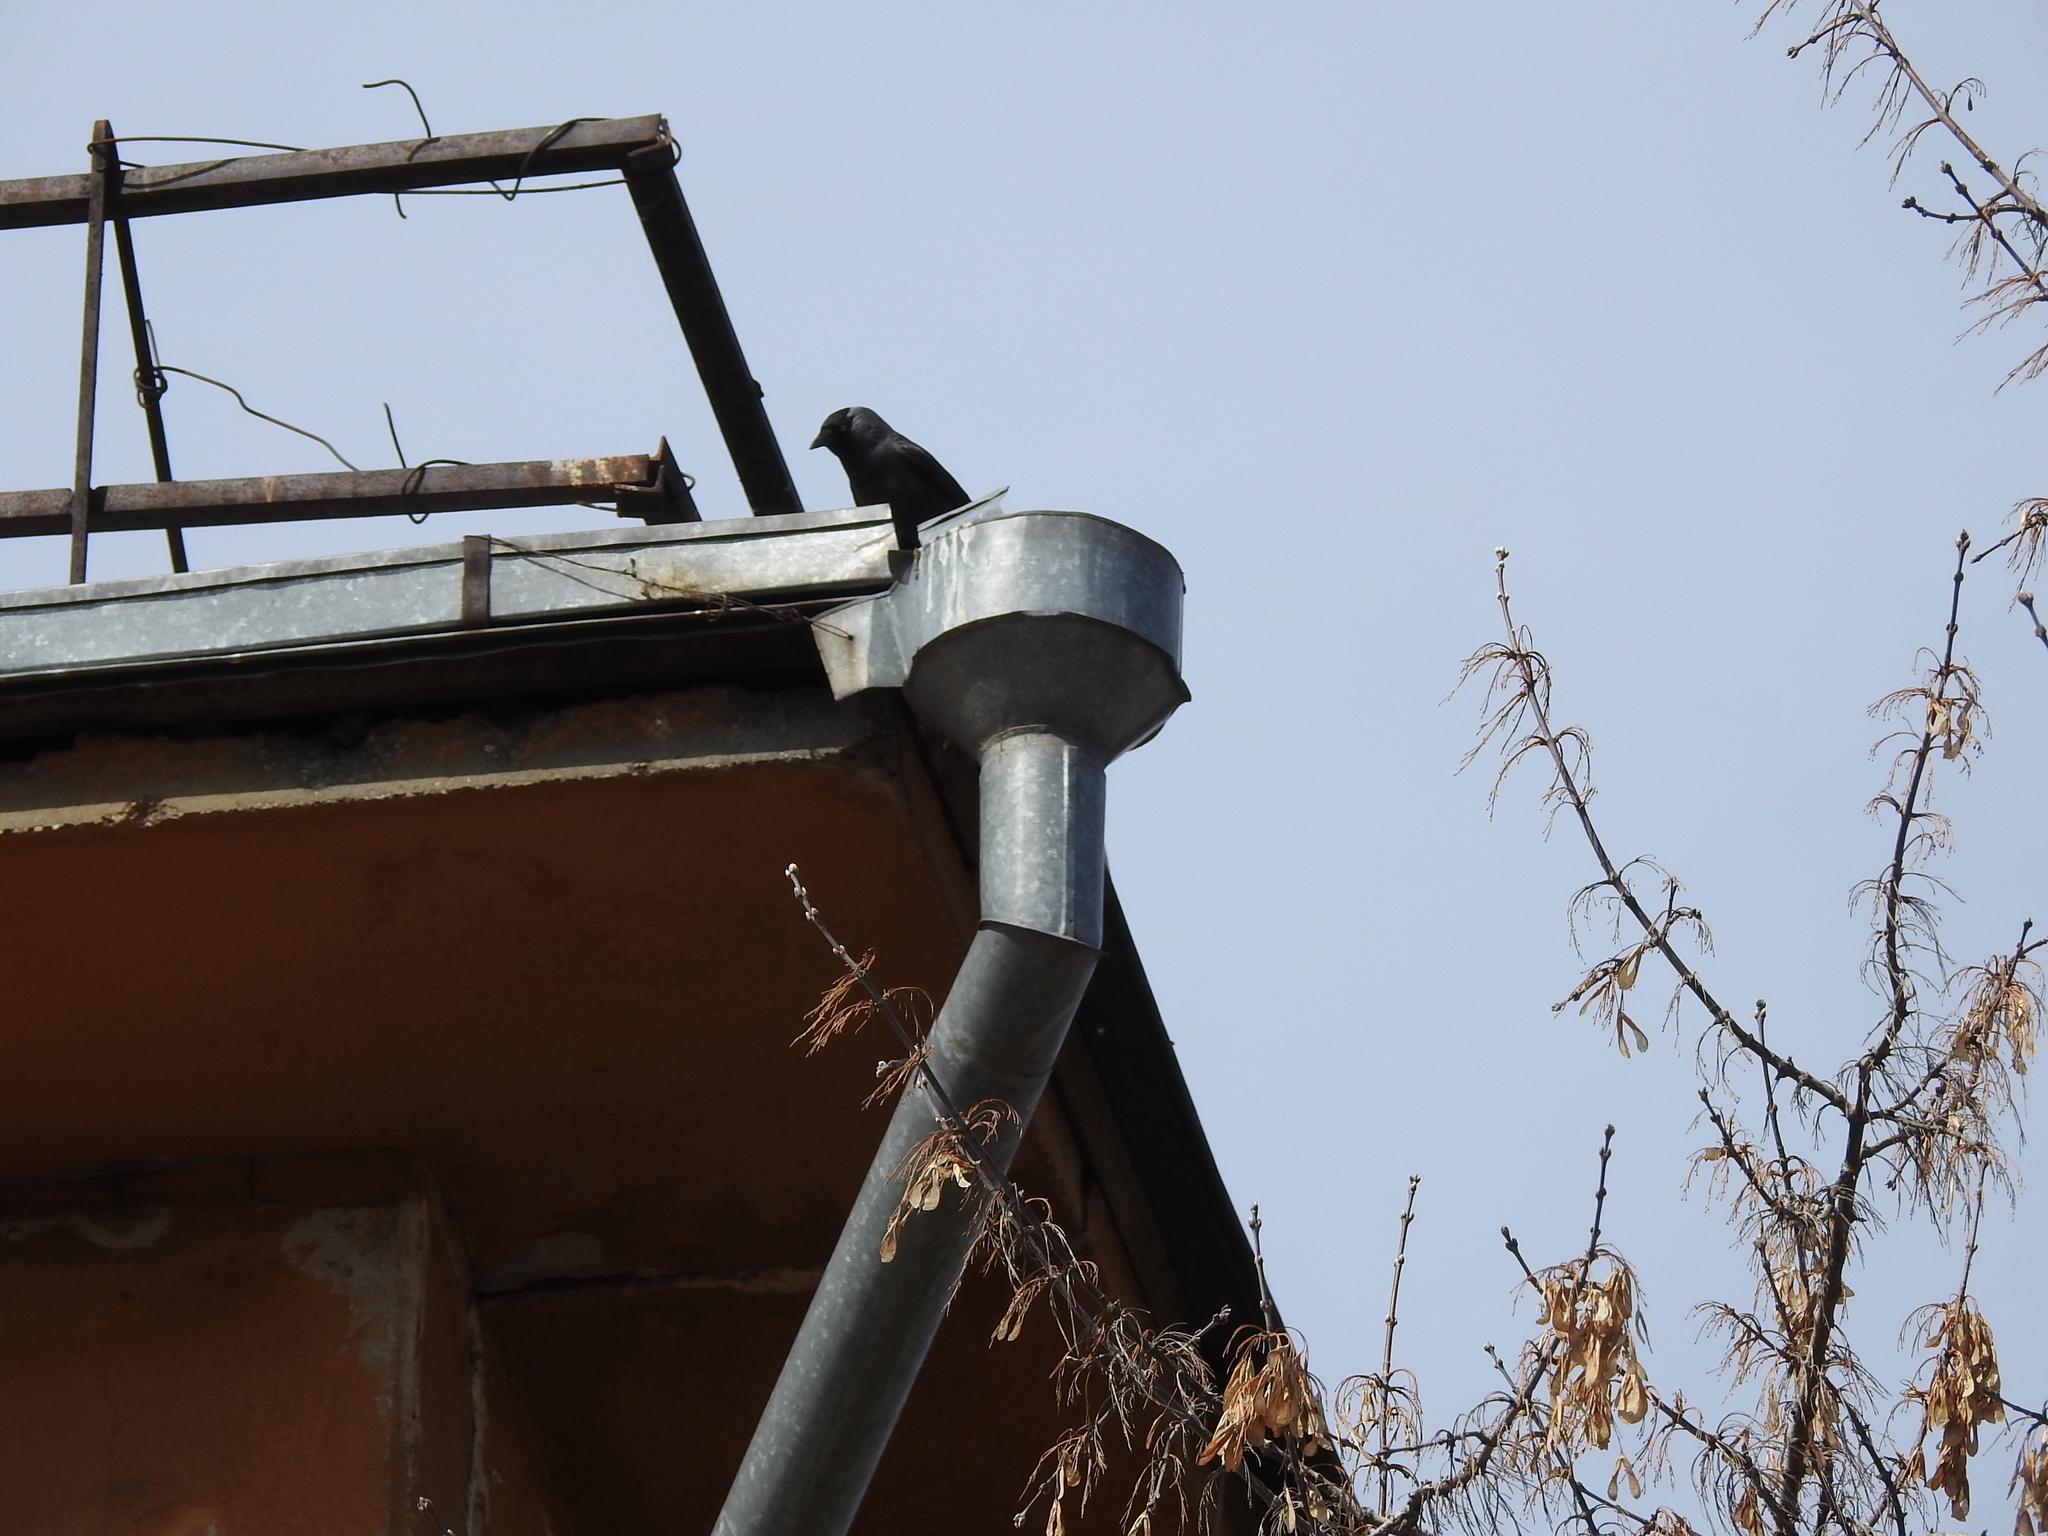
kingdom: Animalia
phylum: Chordata
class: Aves
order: Passeriformes
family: Corvidae
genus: Coloeus
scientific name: Coloeus monedula
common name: Western jackdaw
